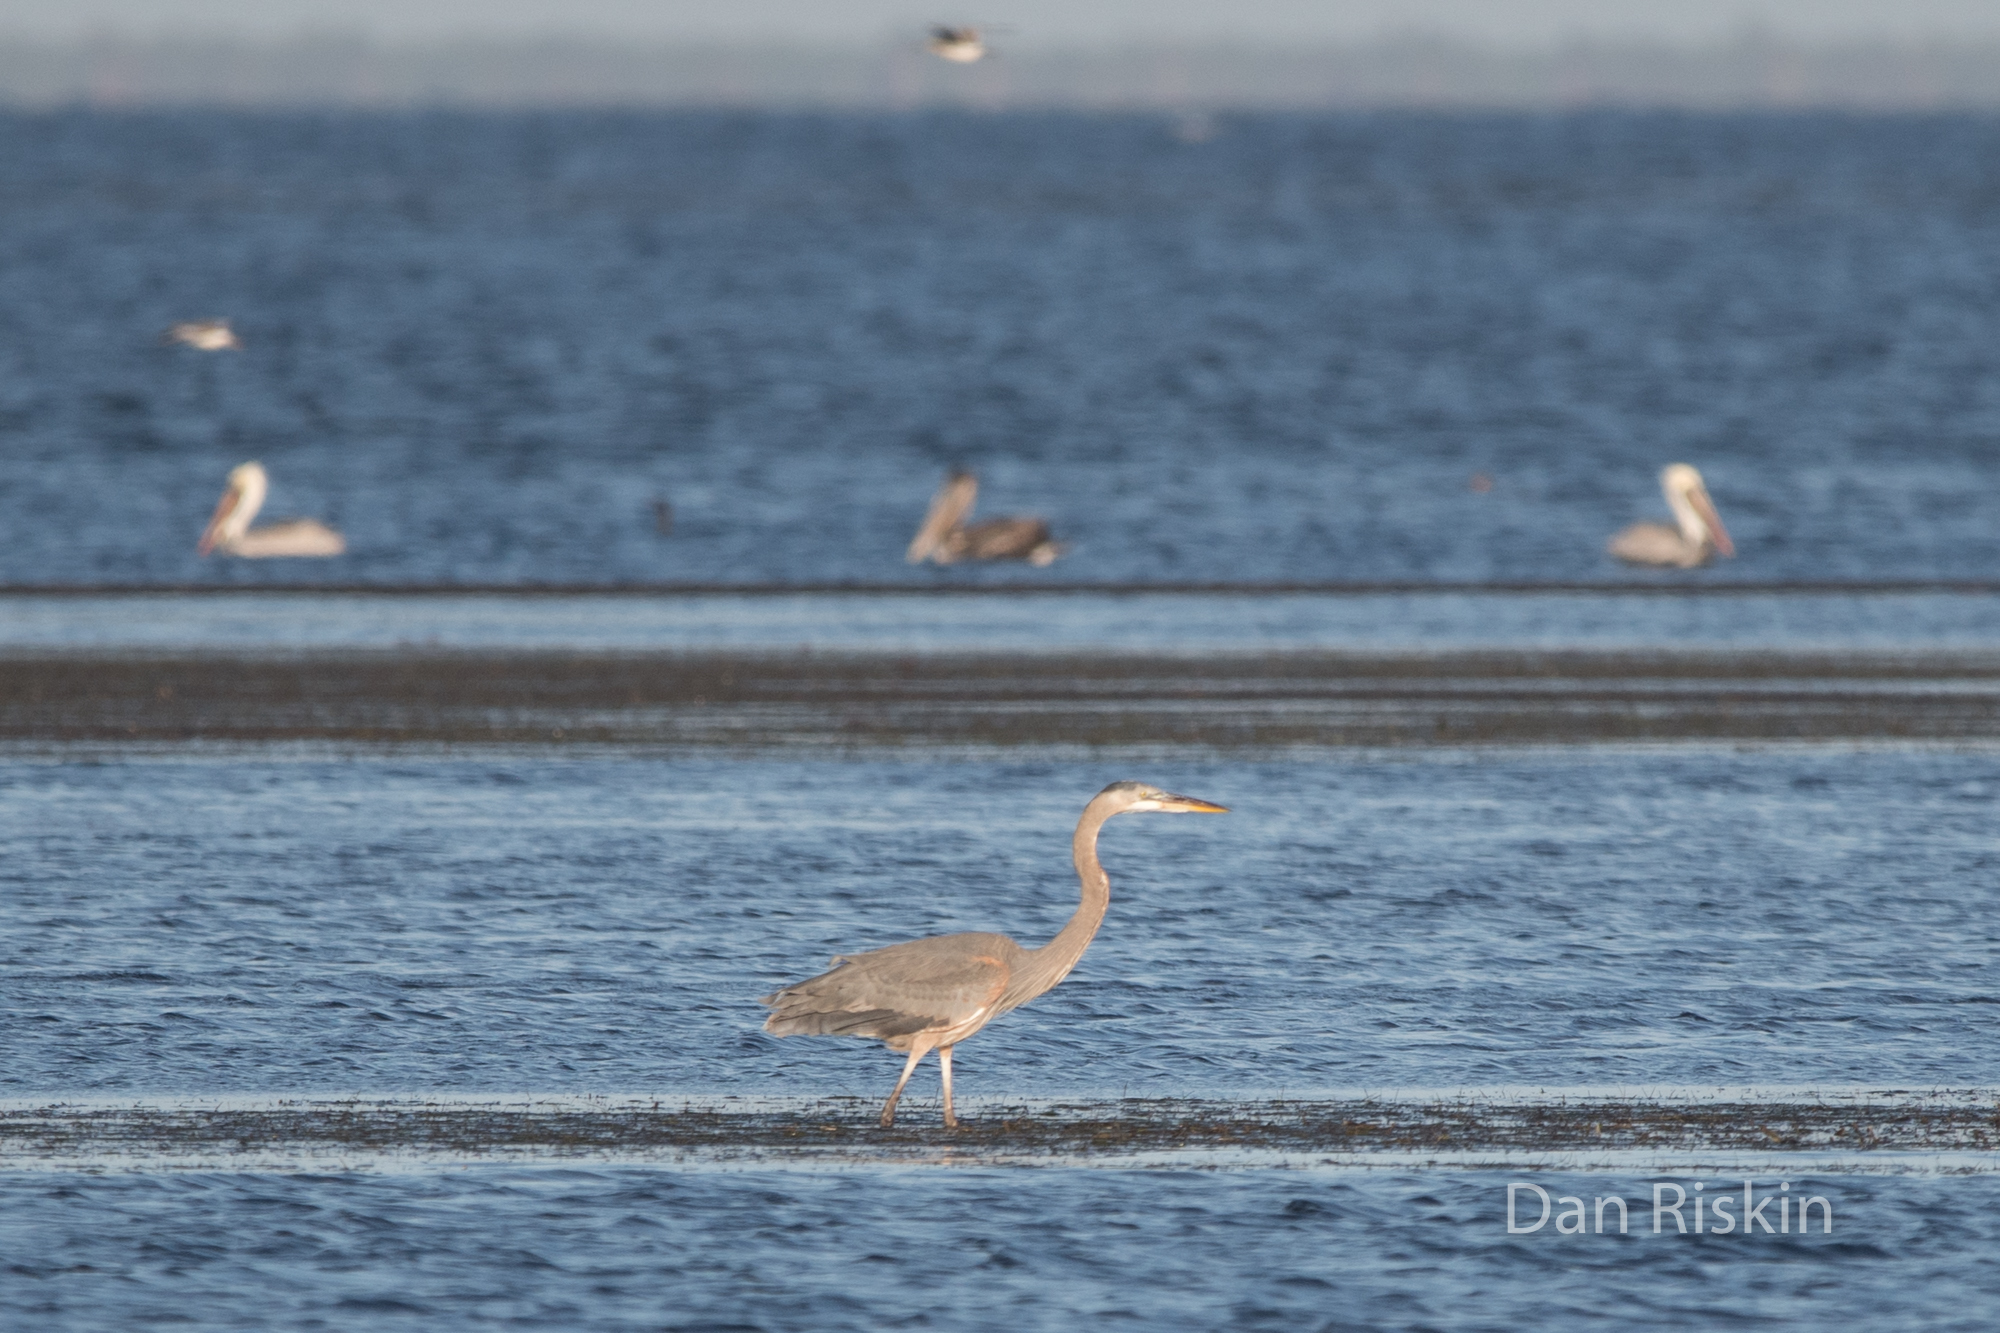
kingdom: Animalia
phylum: Chordata
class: Aves
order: Pelecaniformes
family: Ardeidae
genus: Ardea
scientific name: Ardea herodias
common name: Great blue heron
